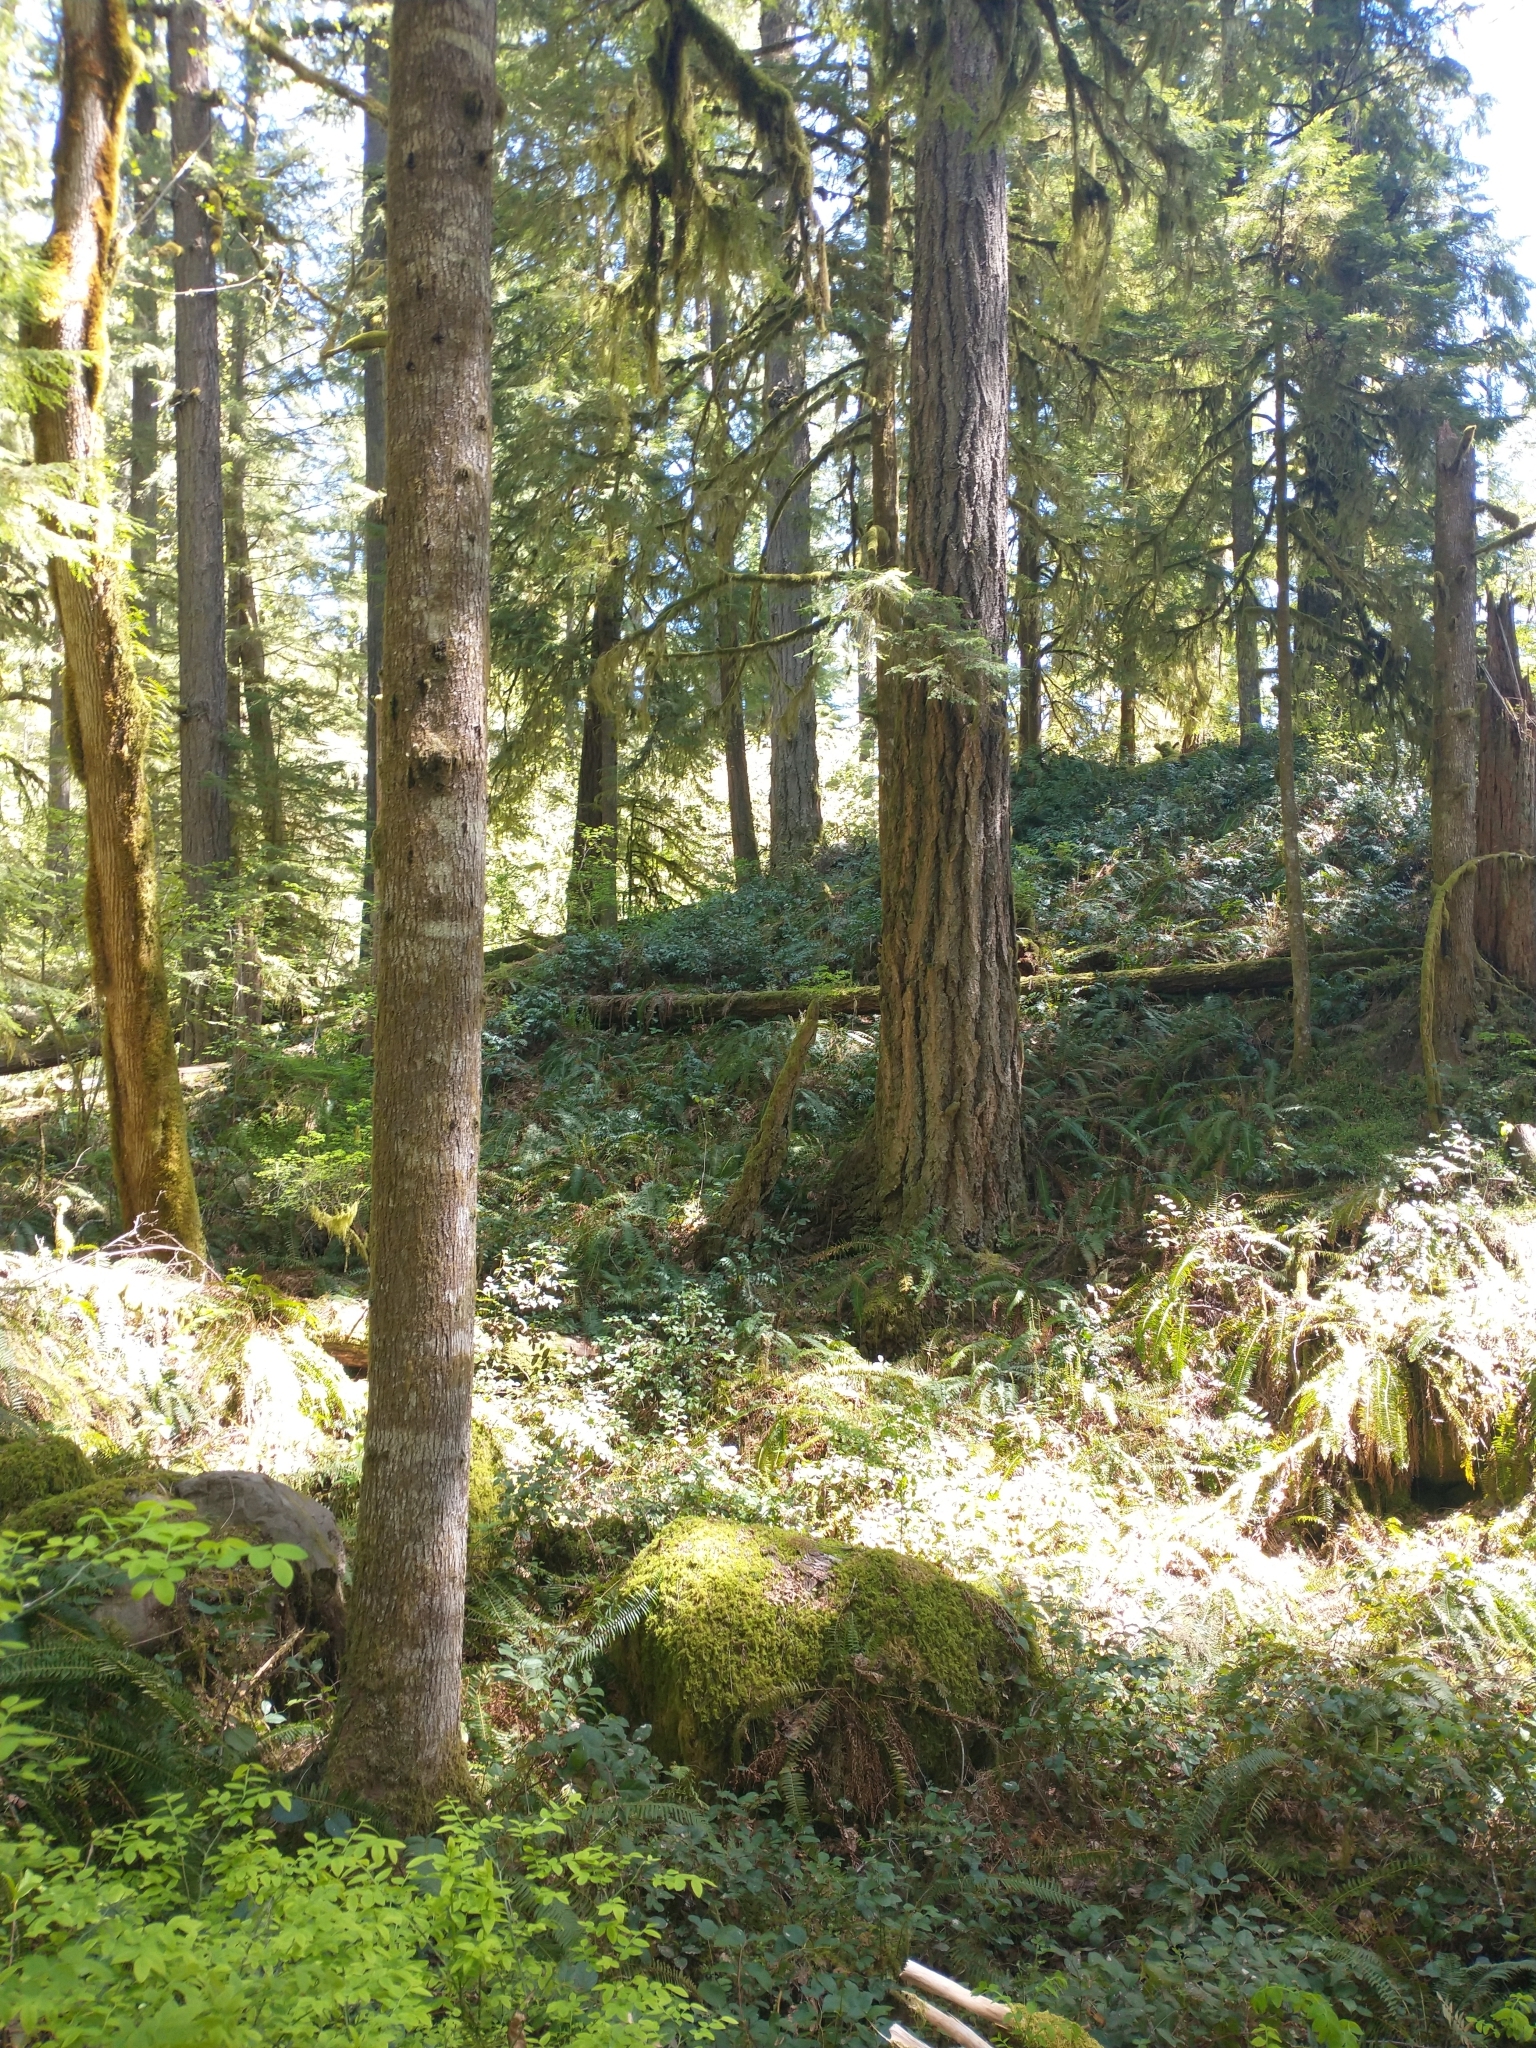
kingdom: Plantae
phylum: Tracheophyta
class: Pinopsida
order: Pinales
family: Pinaceae
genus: Pseudotsuga
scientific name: Pseudotsuga menziesii
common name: Douglas fir
